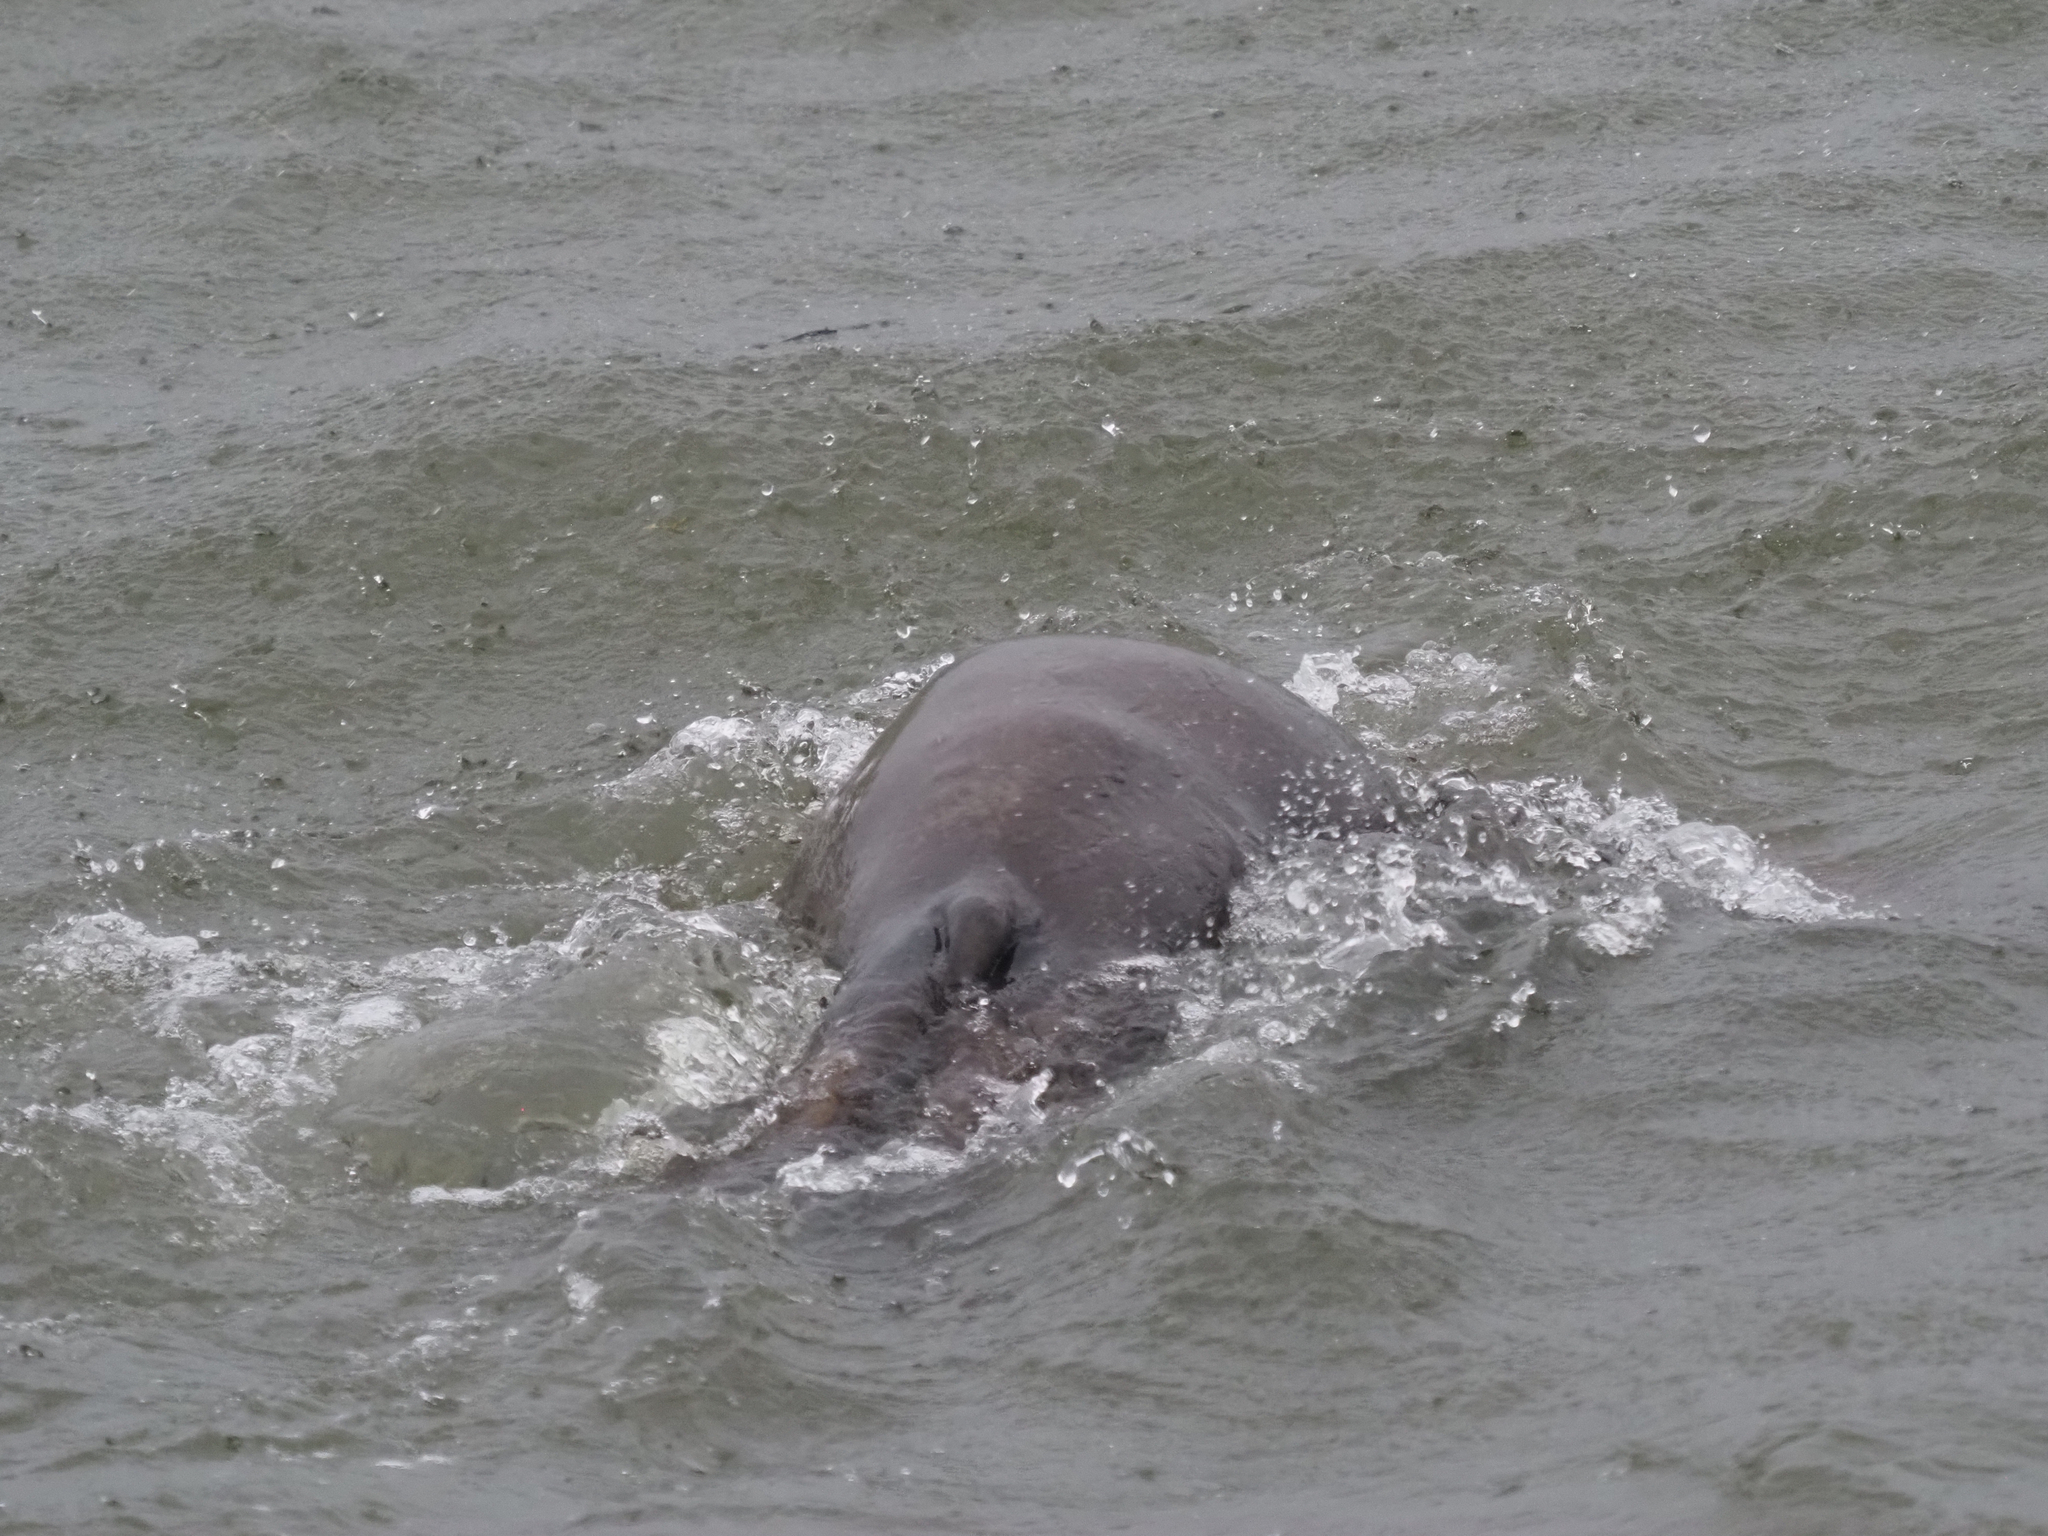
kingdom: Animalia
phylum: Chordata
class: Mammalia
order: Carnivora
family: Otariidae
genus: Eumetopias
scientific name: Eumetopias jubatus
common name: Steller sea lion
